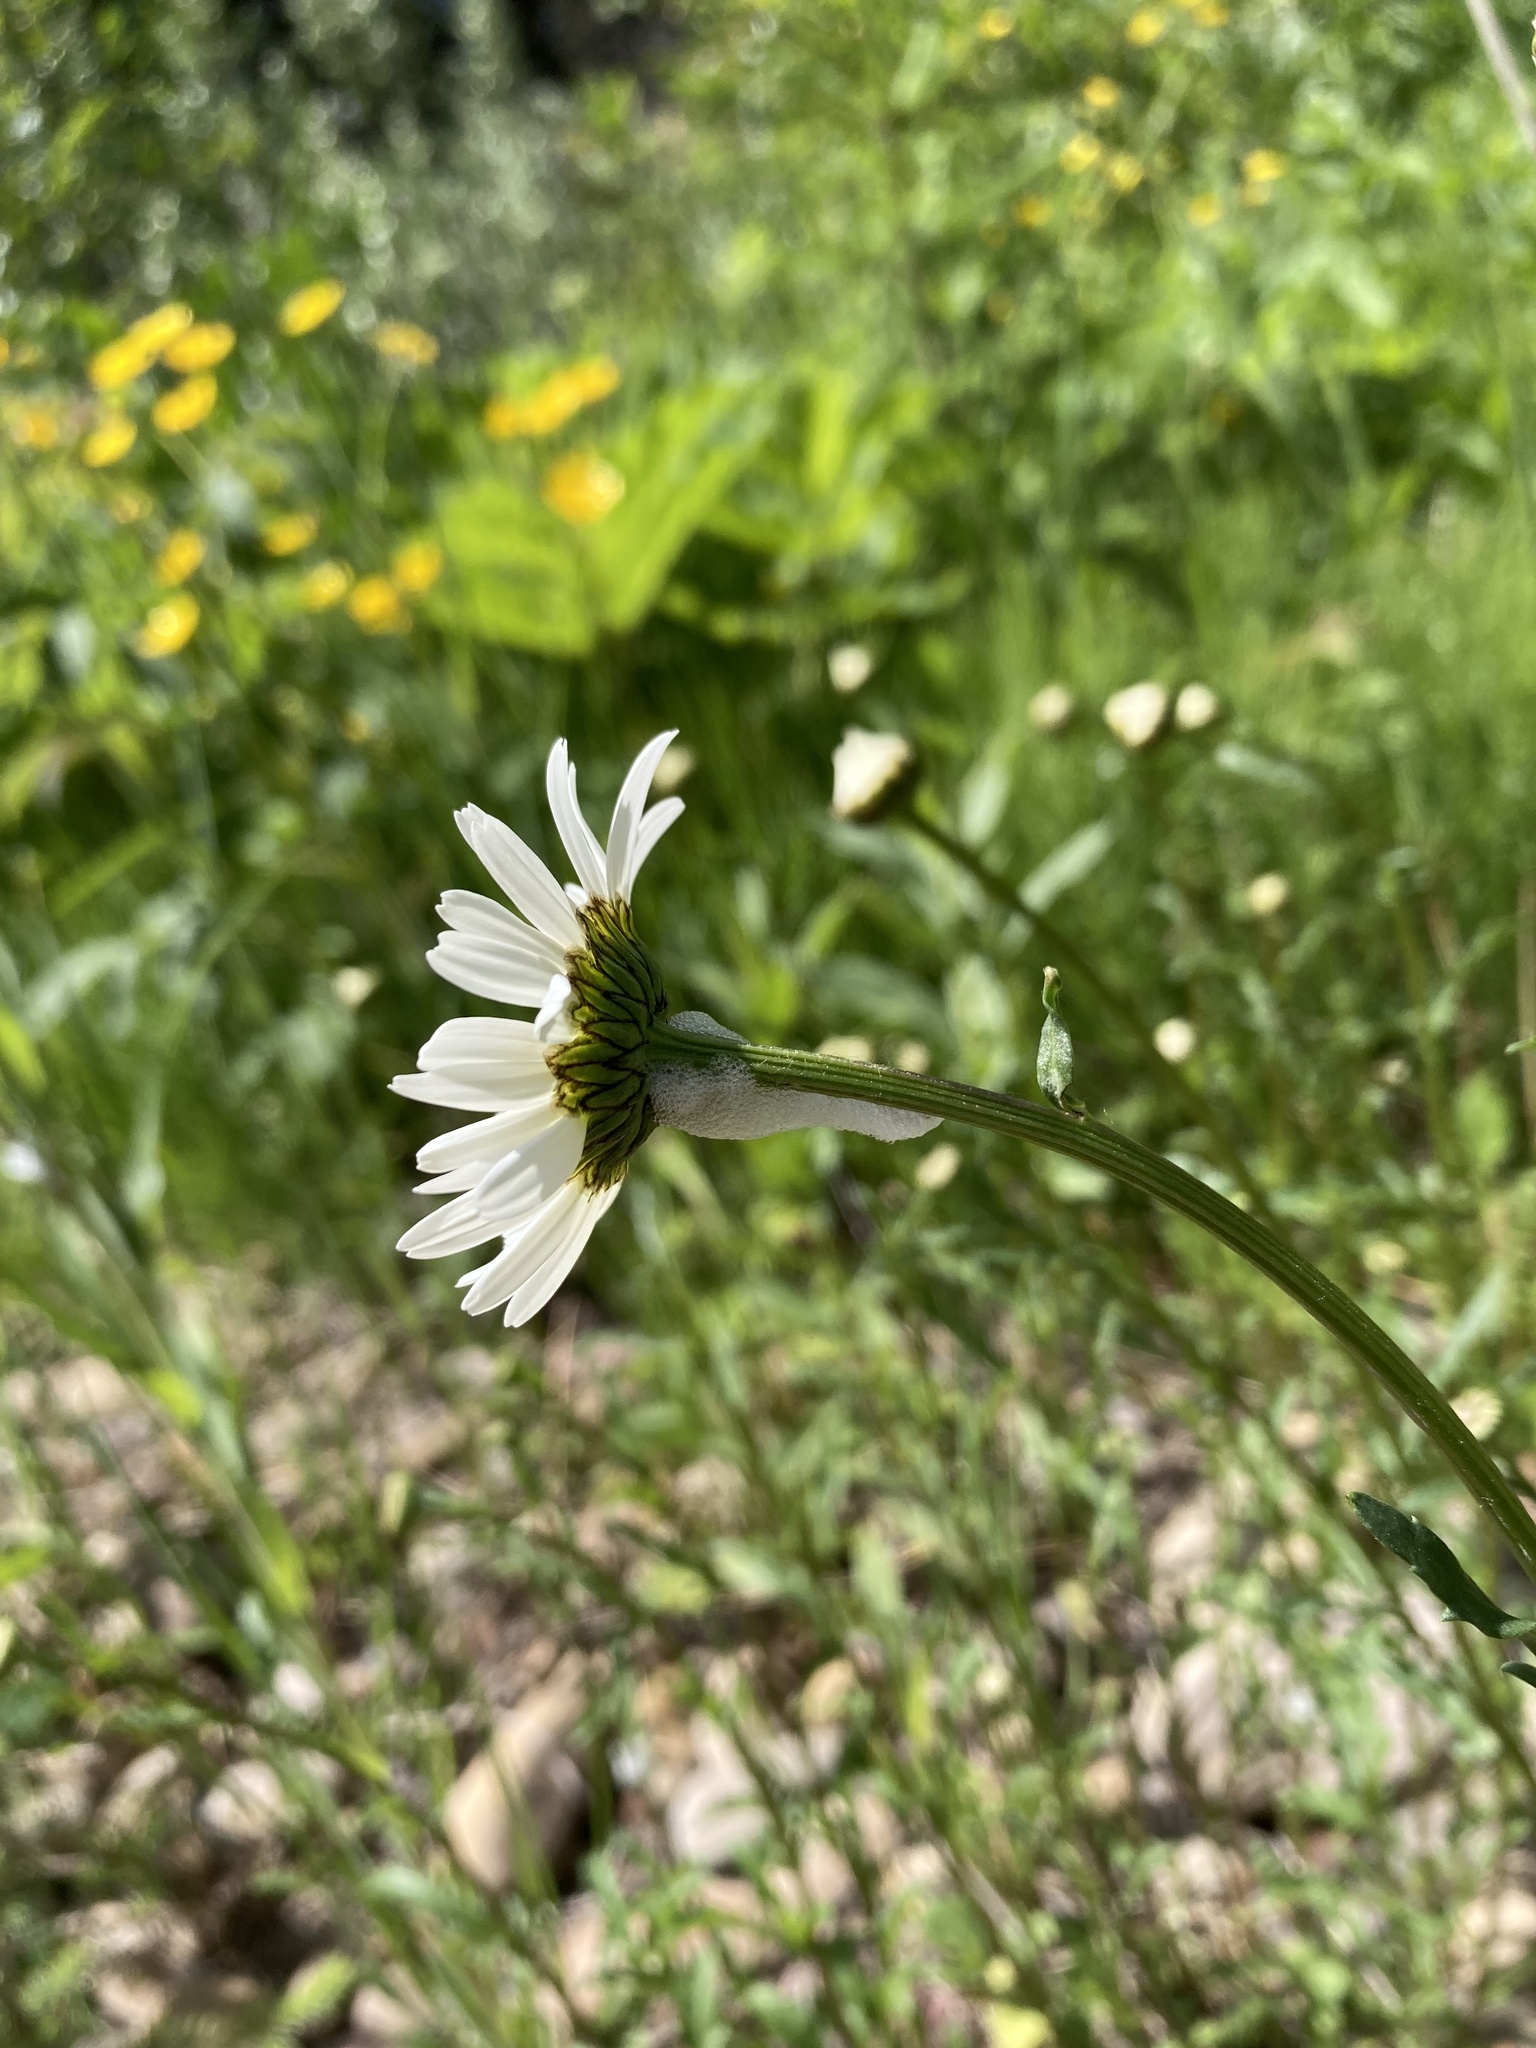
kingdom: Plantae
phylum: Tracheophyta
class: Magnoliopsida
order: Asterales
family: Asteraceae
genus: Leucanthemum
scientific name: Leucanthemum vulgare
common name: Oxeye daisy
